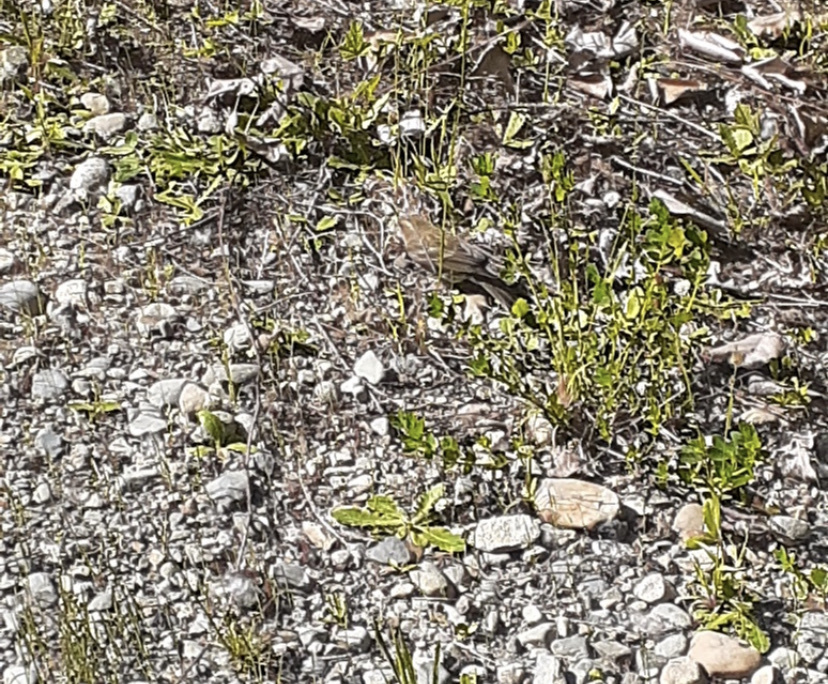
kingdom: Animalia
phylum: Chordata
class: Aves
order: Passeriformes
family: Fringillidae
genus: Haemorhous
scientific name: Haemorhous purpureus
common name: Purple finch
